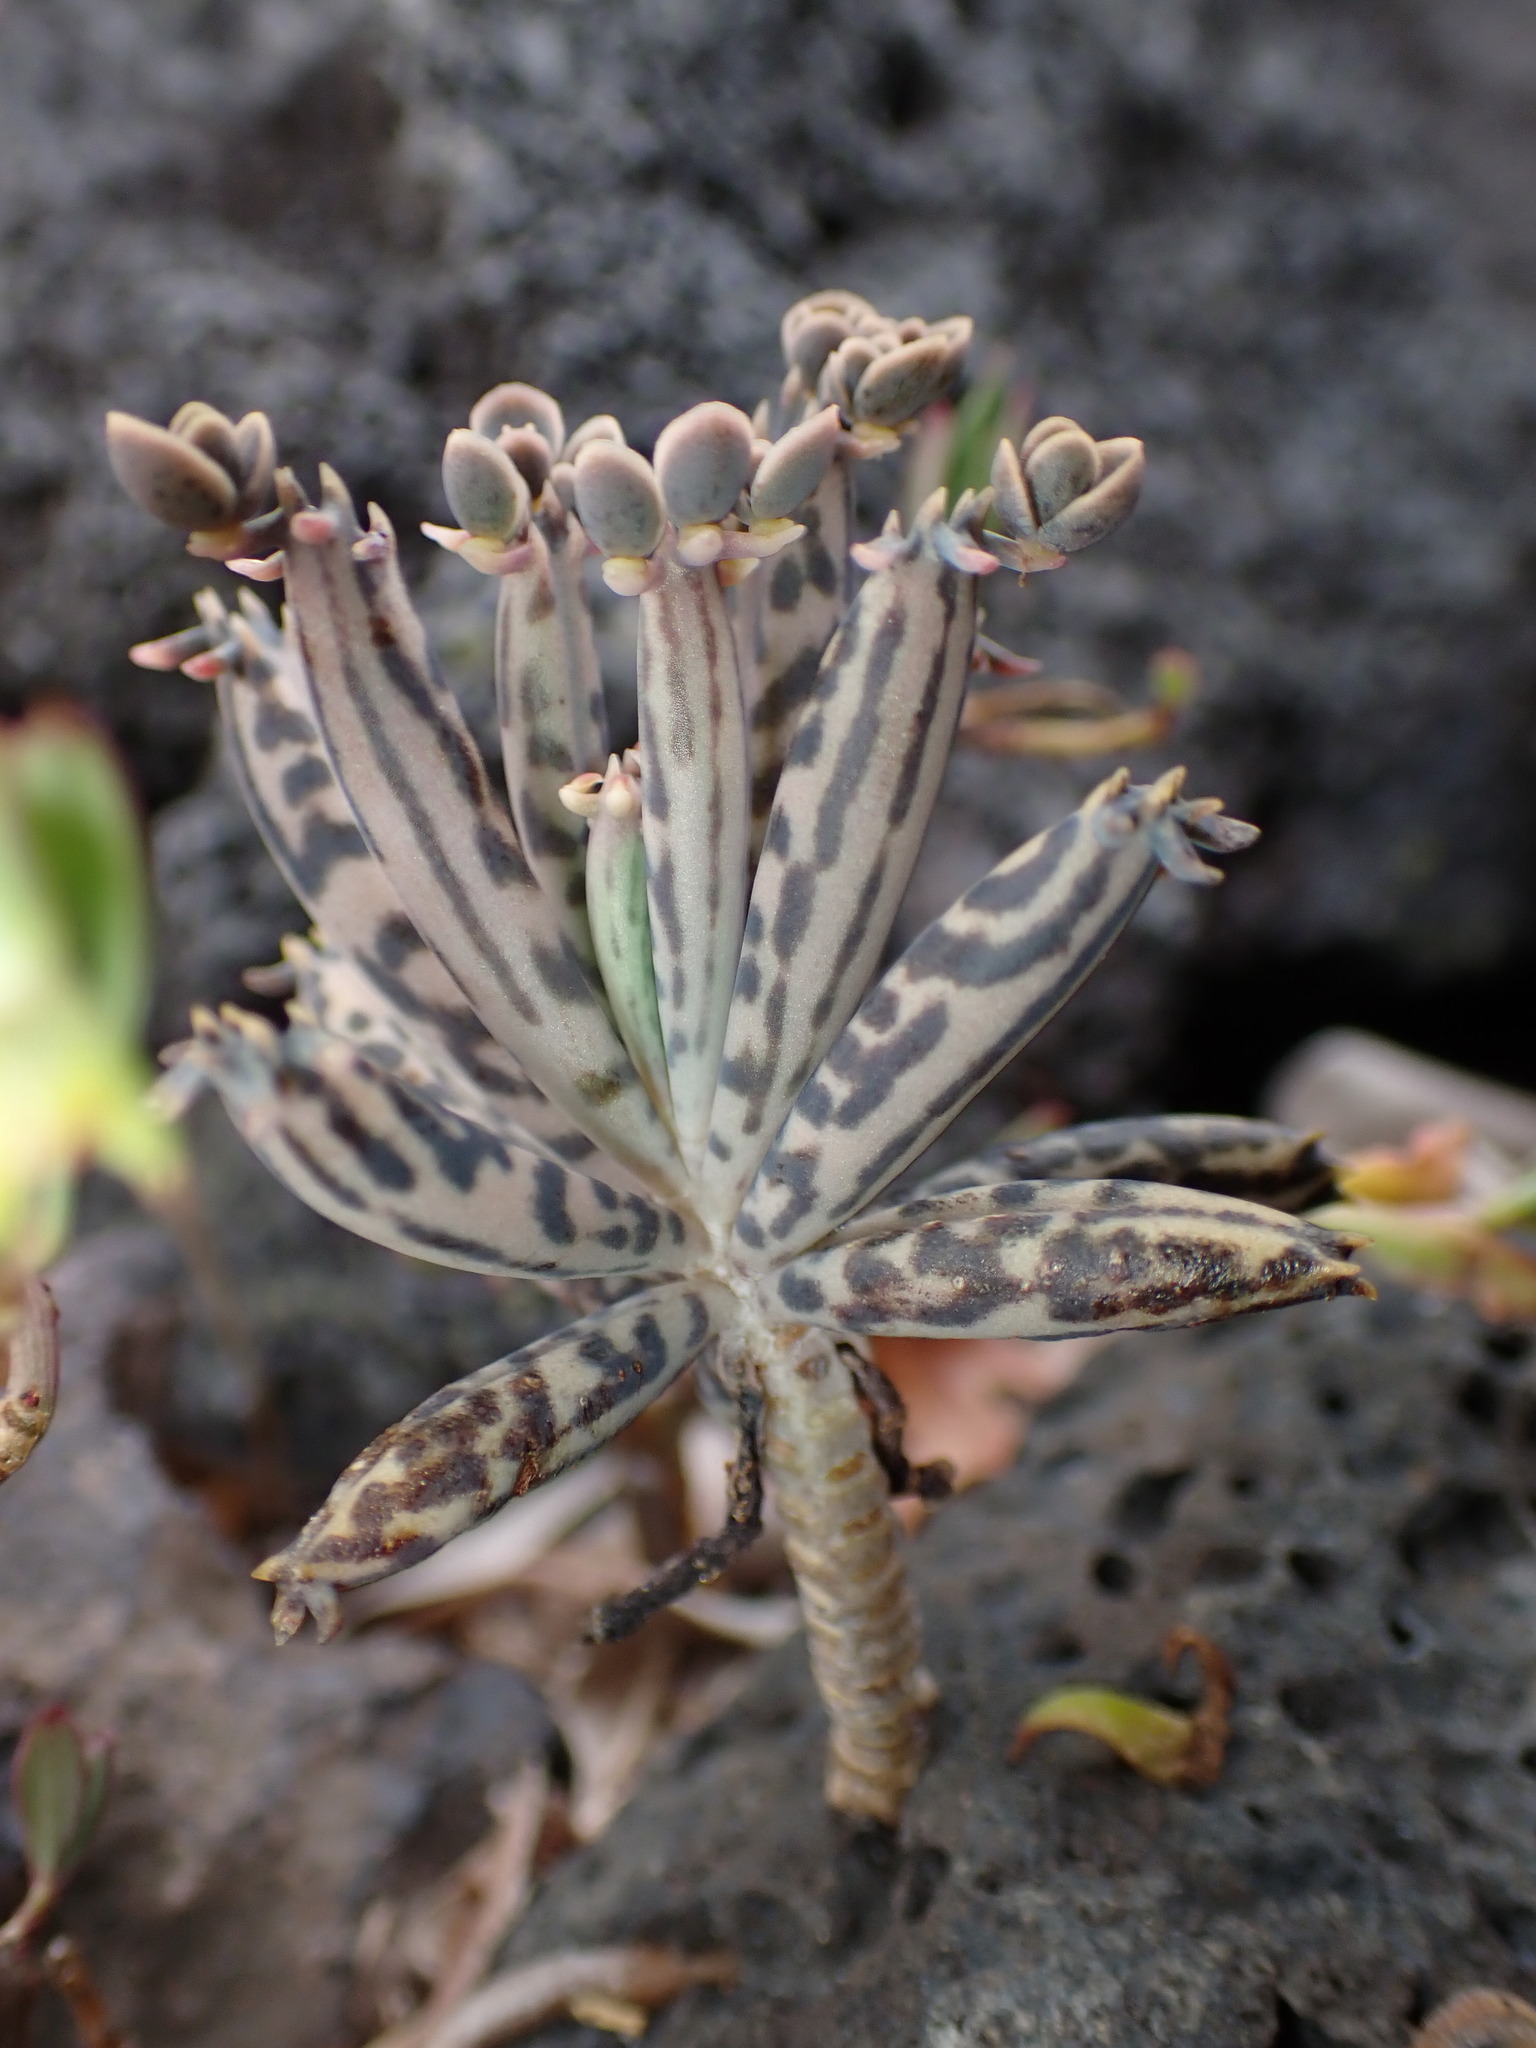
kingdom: Plantae
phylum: Tracheophyta
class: Magnoliopsida
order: Saxifragales
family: Crassulaceae
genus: Kalanchoe
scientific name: Kalanchoe delagoensis
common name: Chandelier plant
